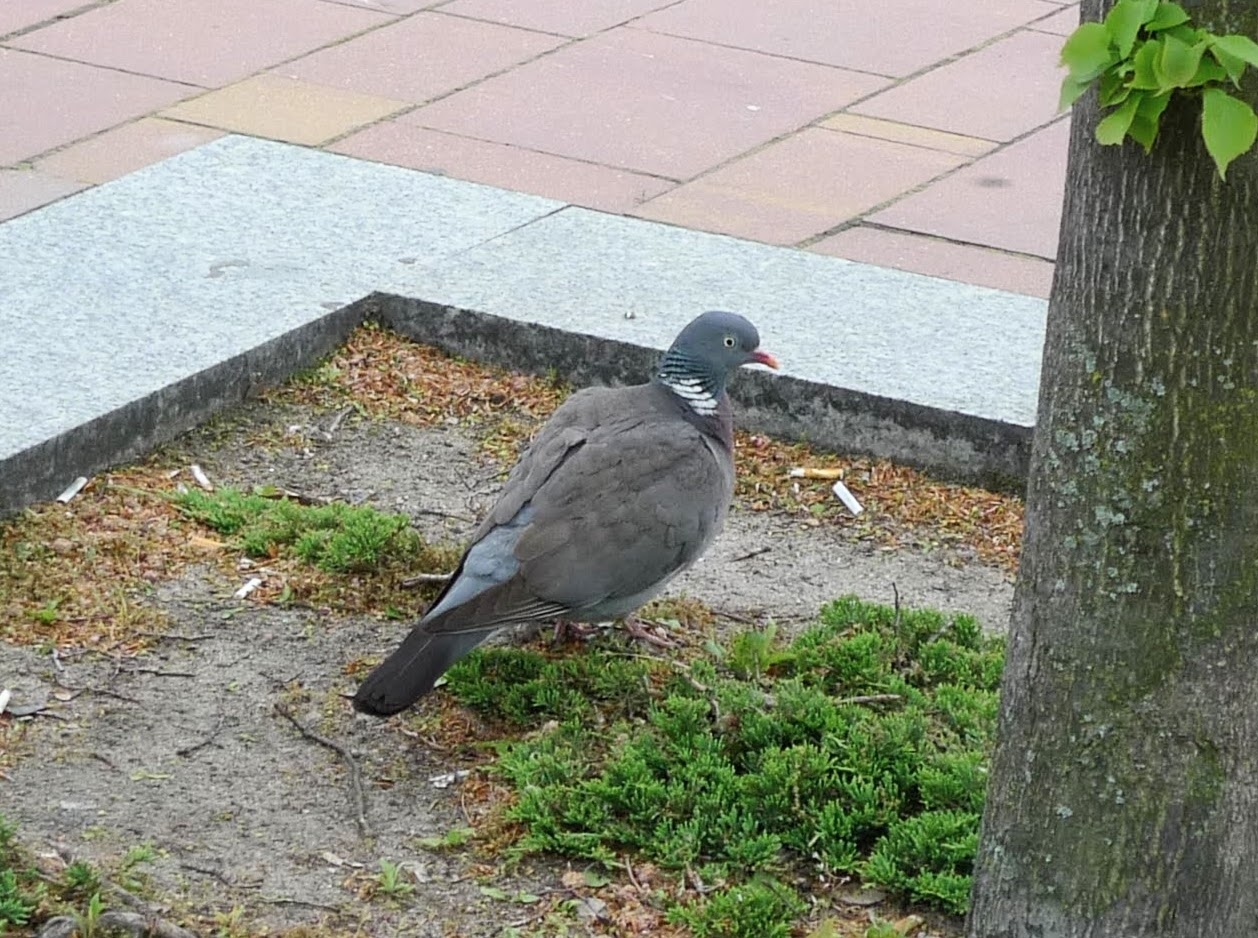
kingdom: Animalia
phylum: Chordata
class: Aves
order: Columbiformes
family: Columbidae
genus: Columba
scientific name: Columba palumbus
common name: Common wood pigeon
